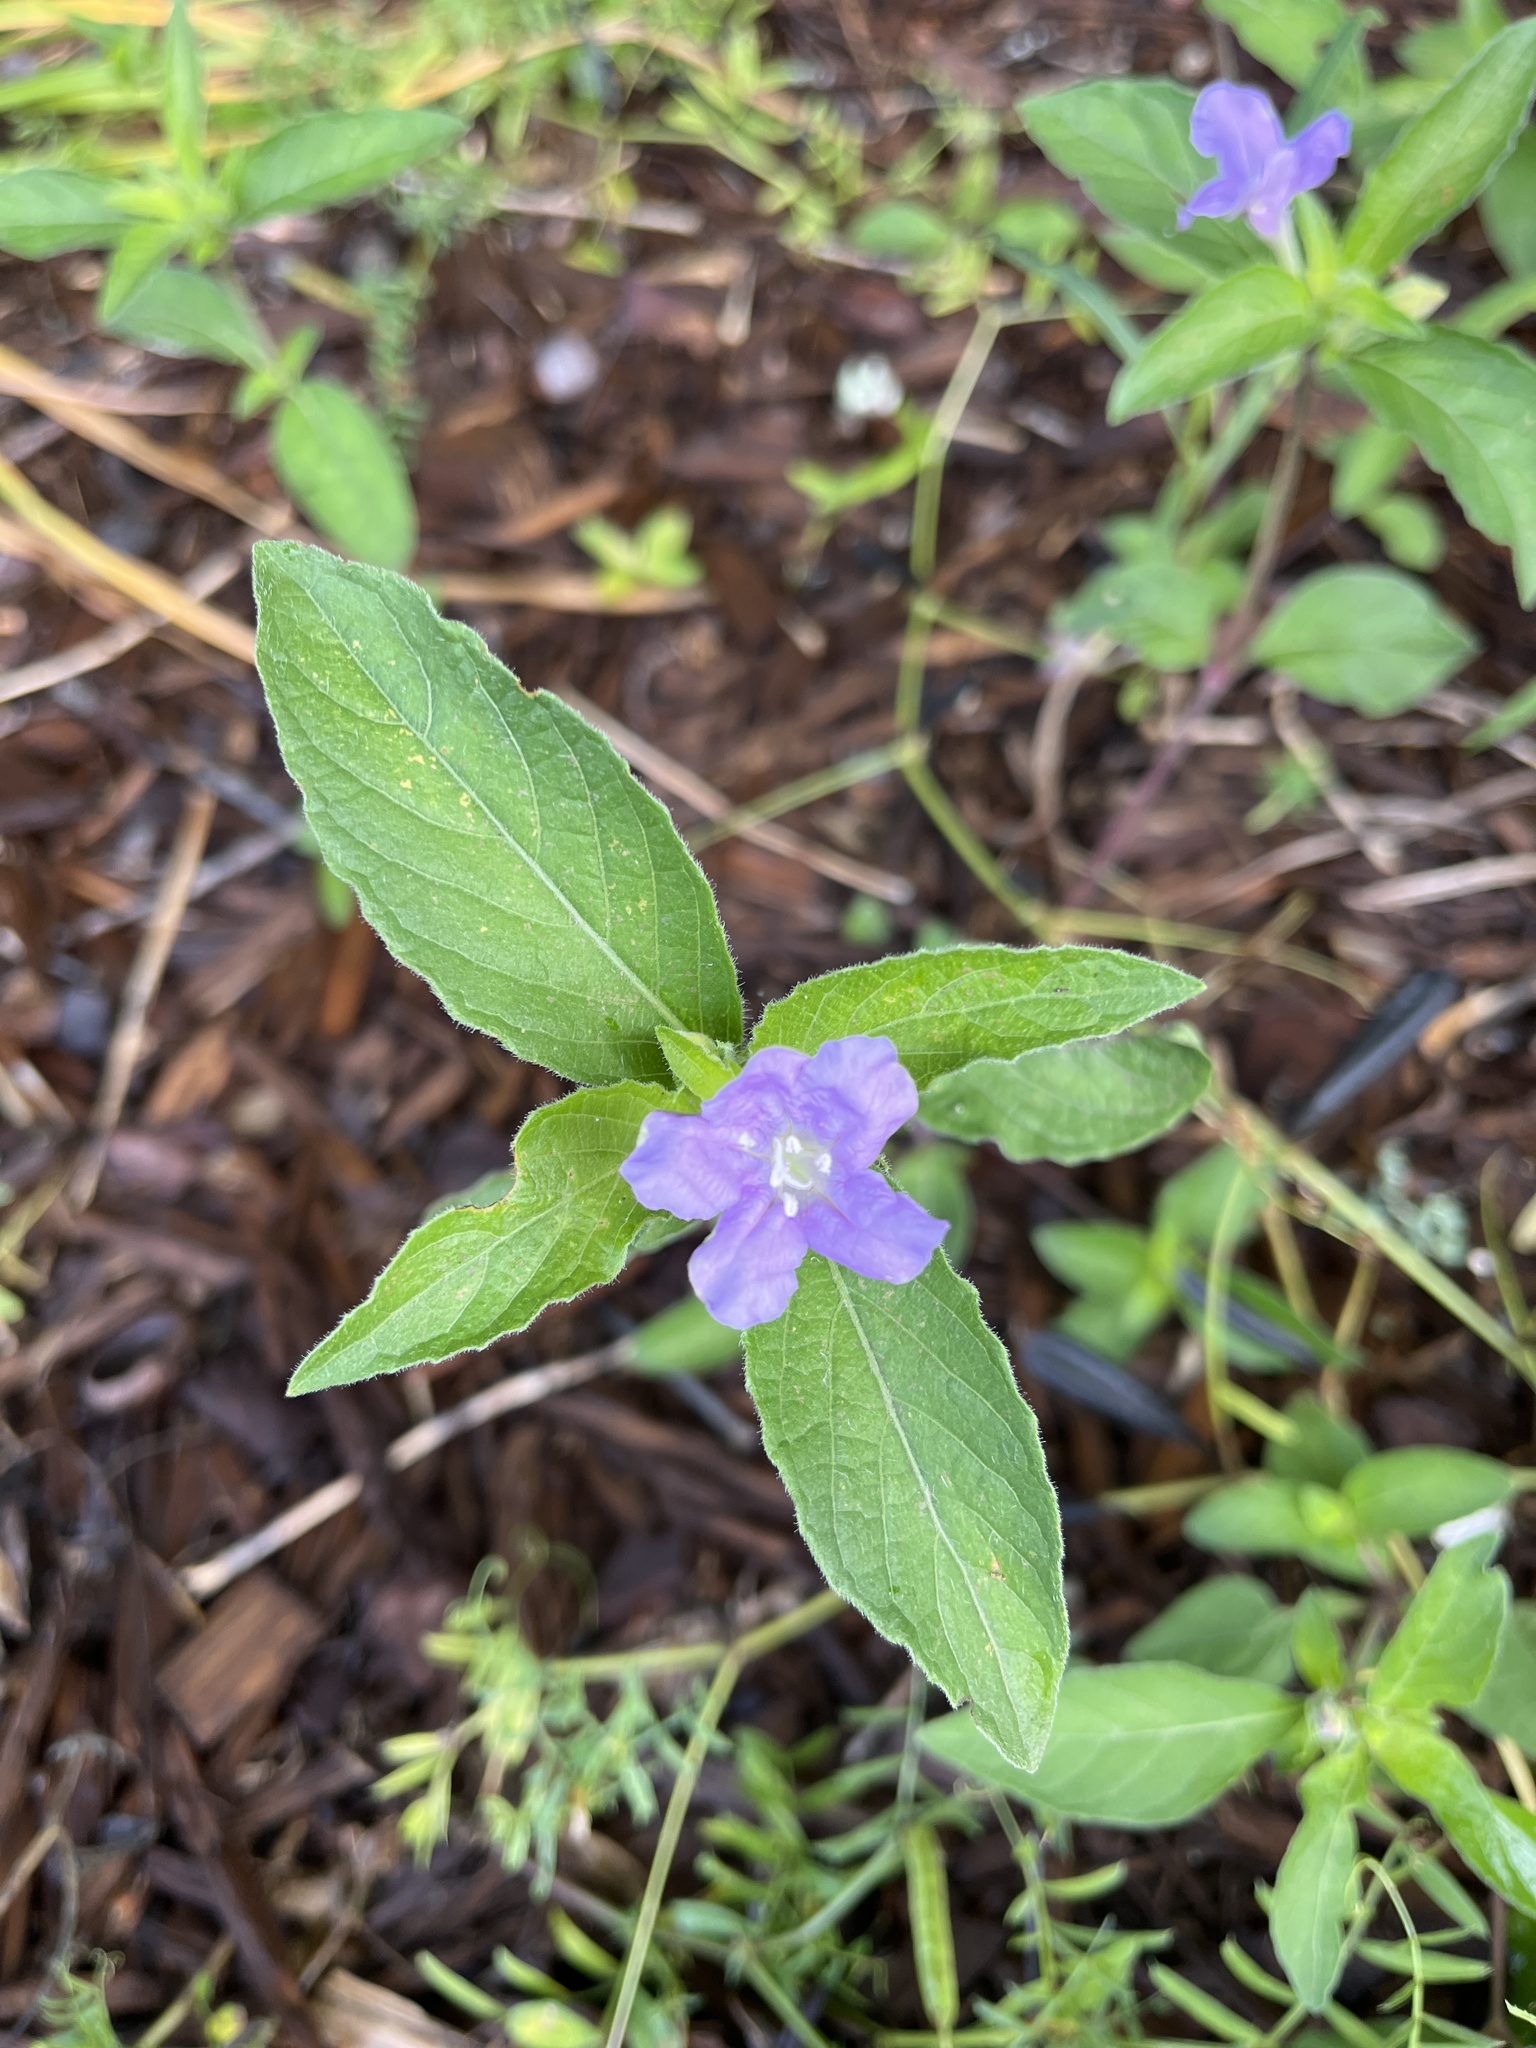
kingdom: Plantae
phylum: Tracheophyta
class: Magnoliopsida
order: Lamiales
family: Acanthaceae
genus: Ruellia
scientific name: Ruellia caroliniensis
